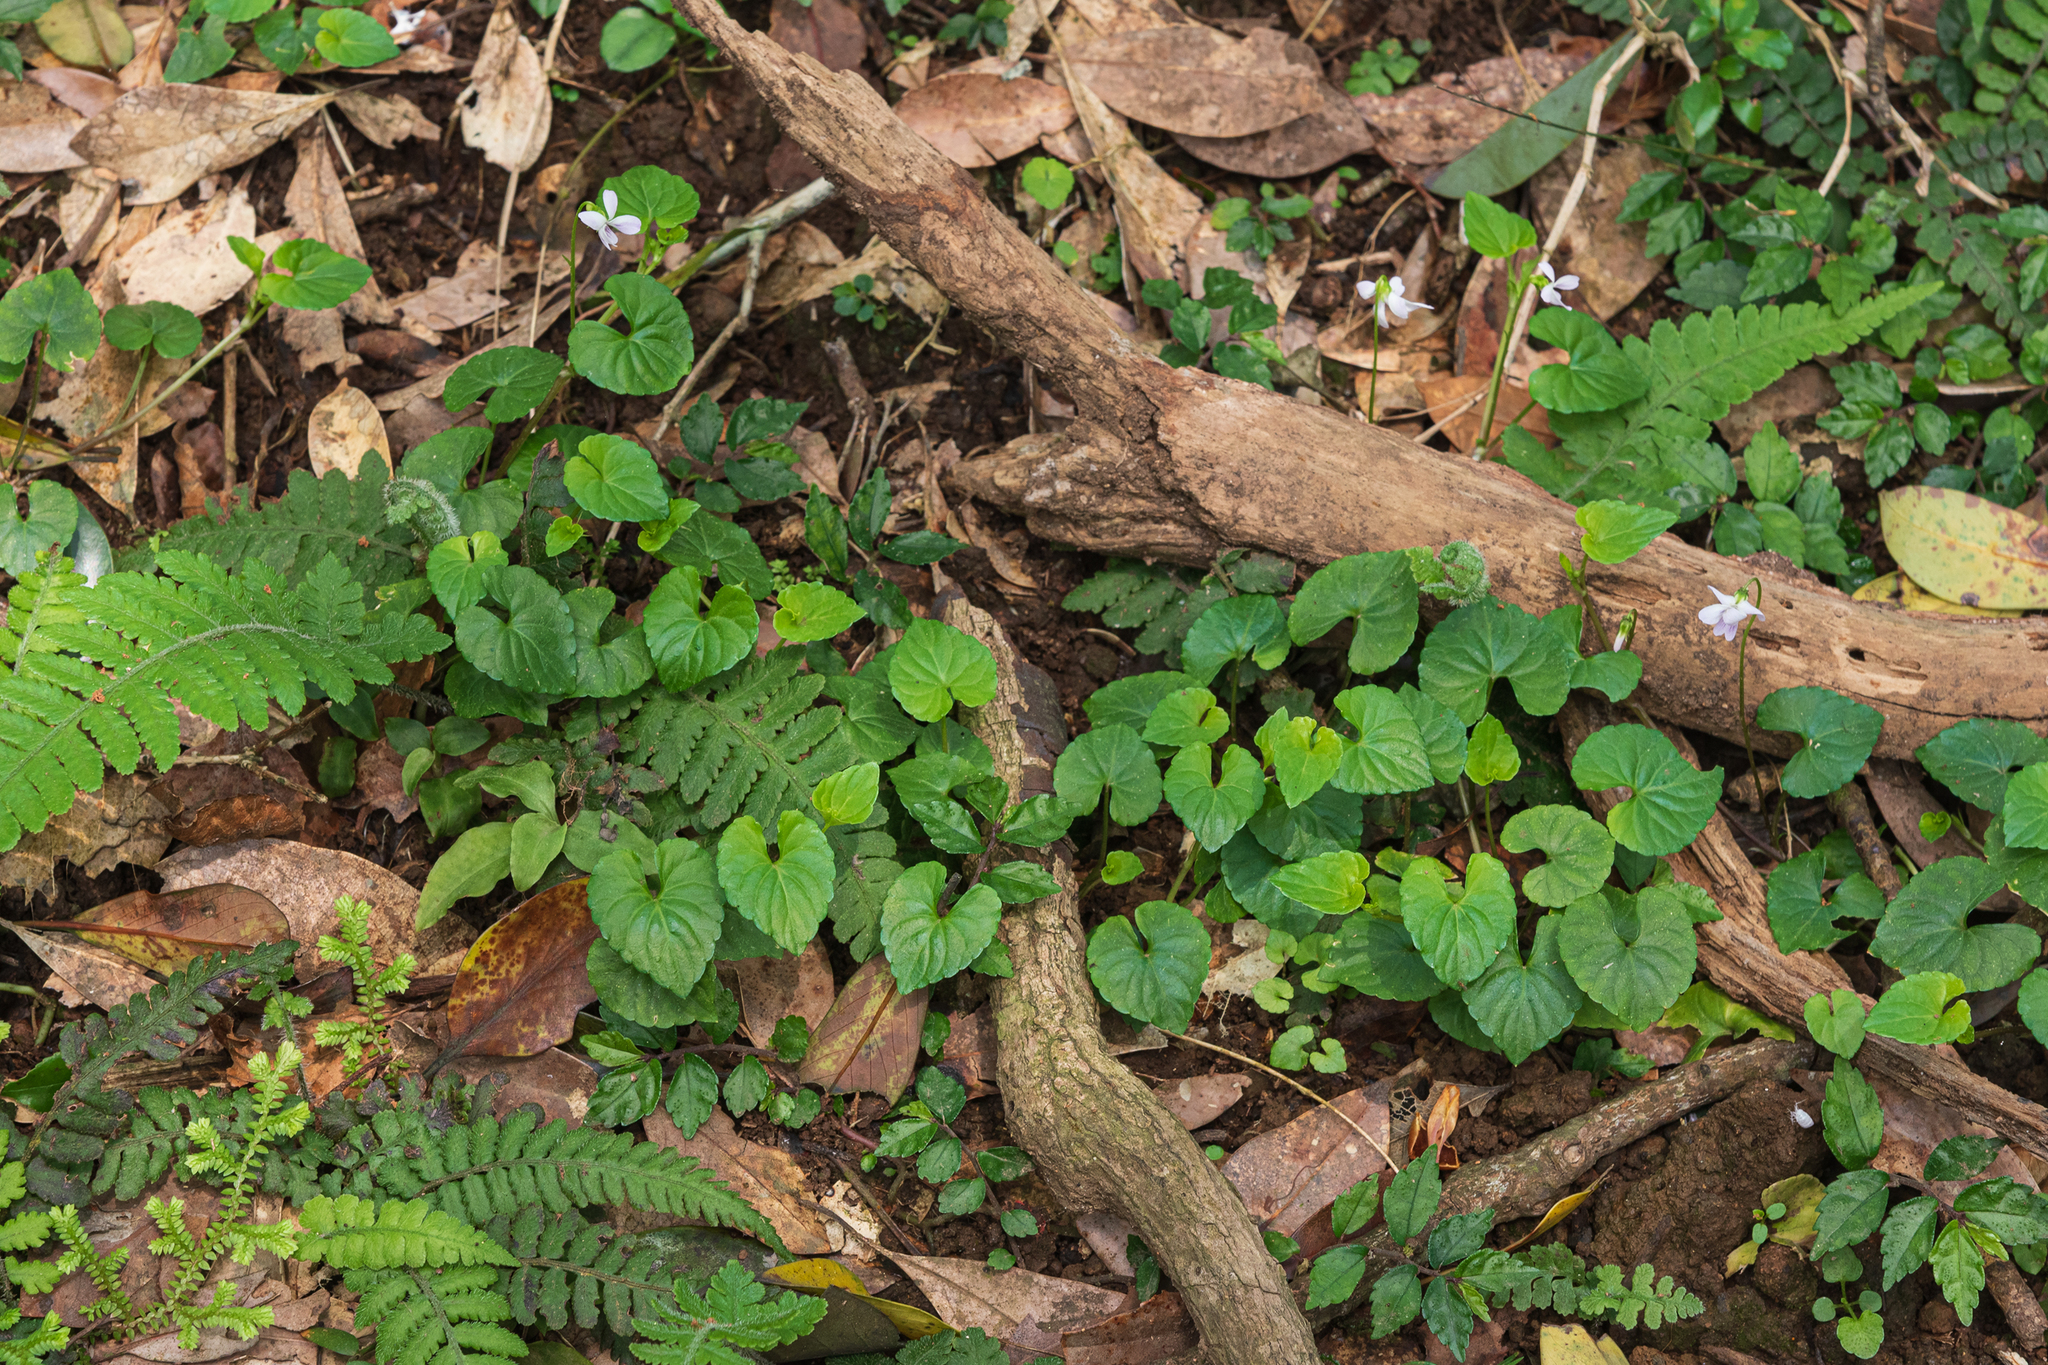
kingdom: Plantae
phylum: Tracheophyta
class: Magnoliopsida
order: Malpighiales
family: Violaceae
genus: Viola
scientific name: Viola
